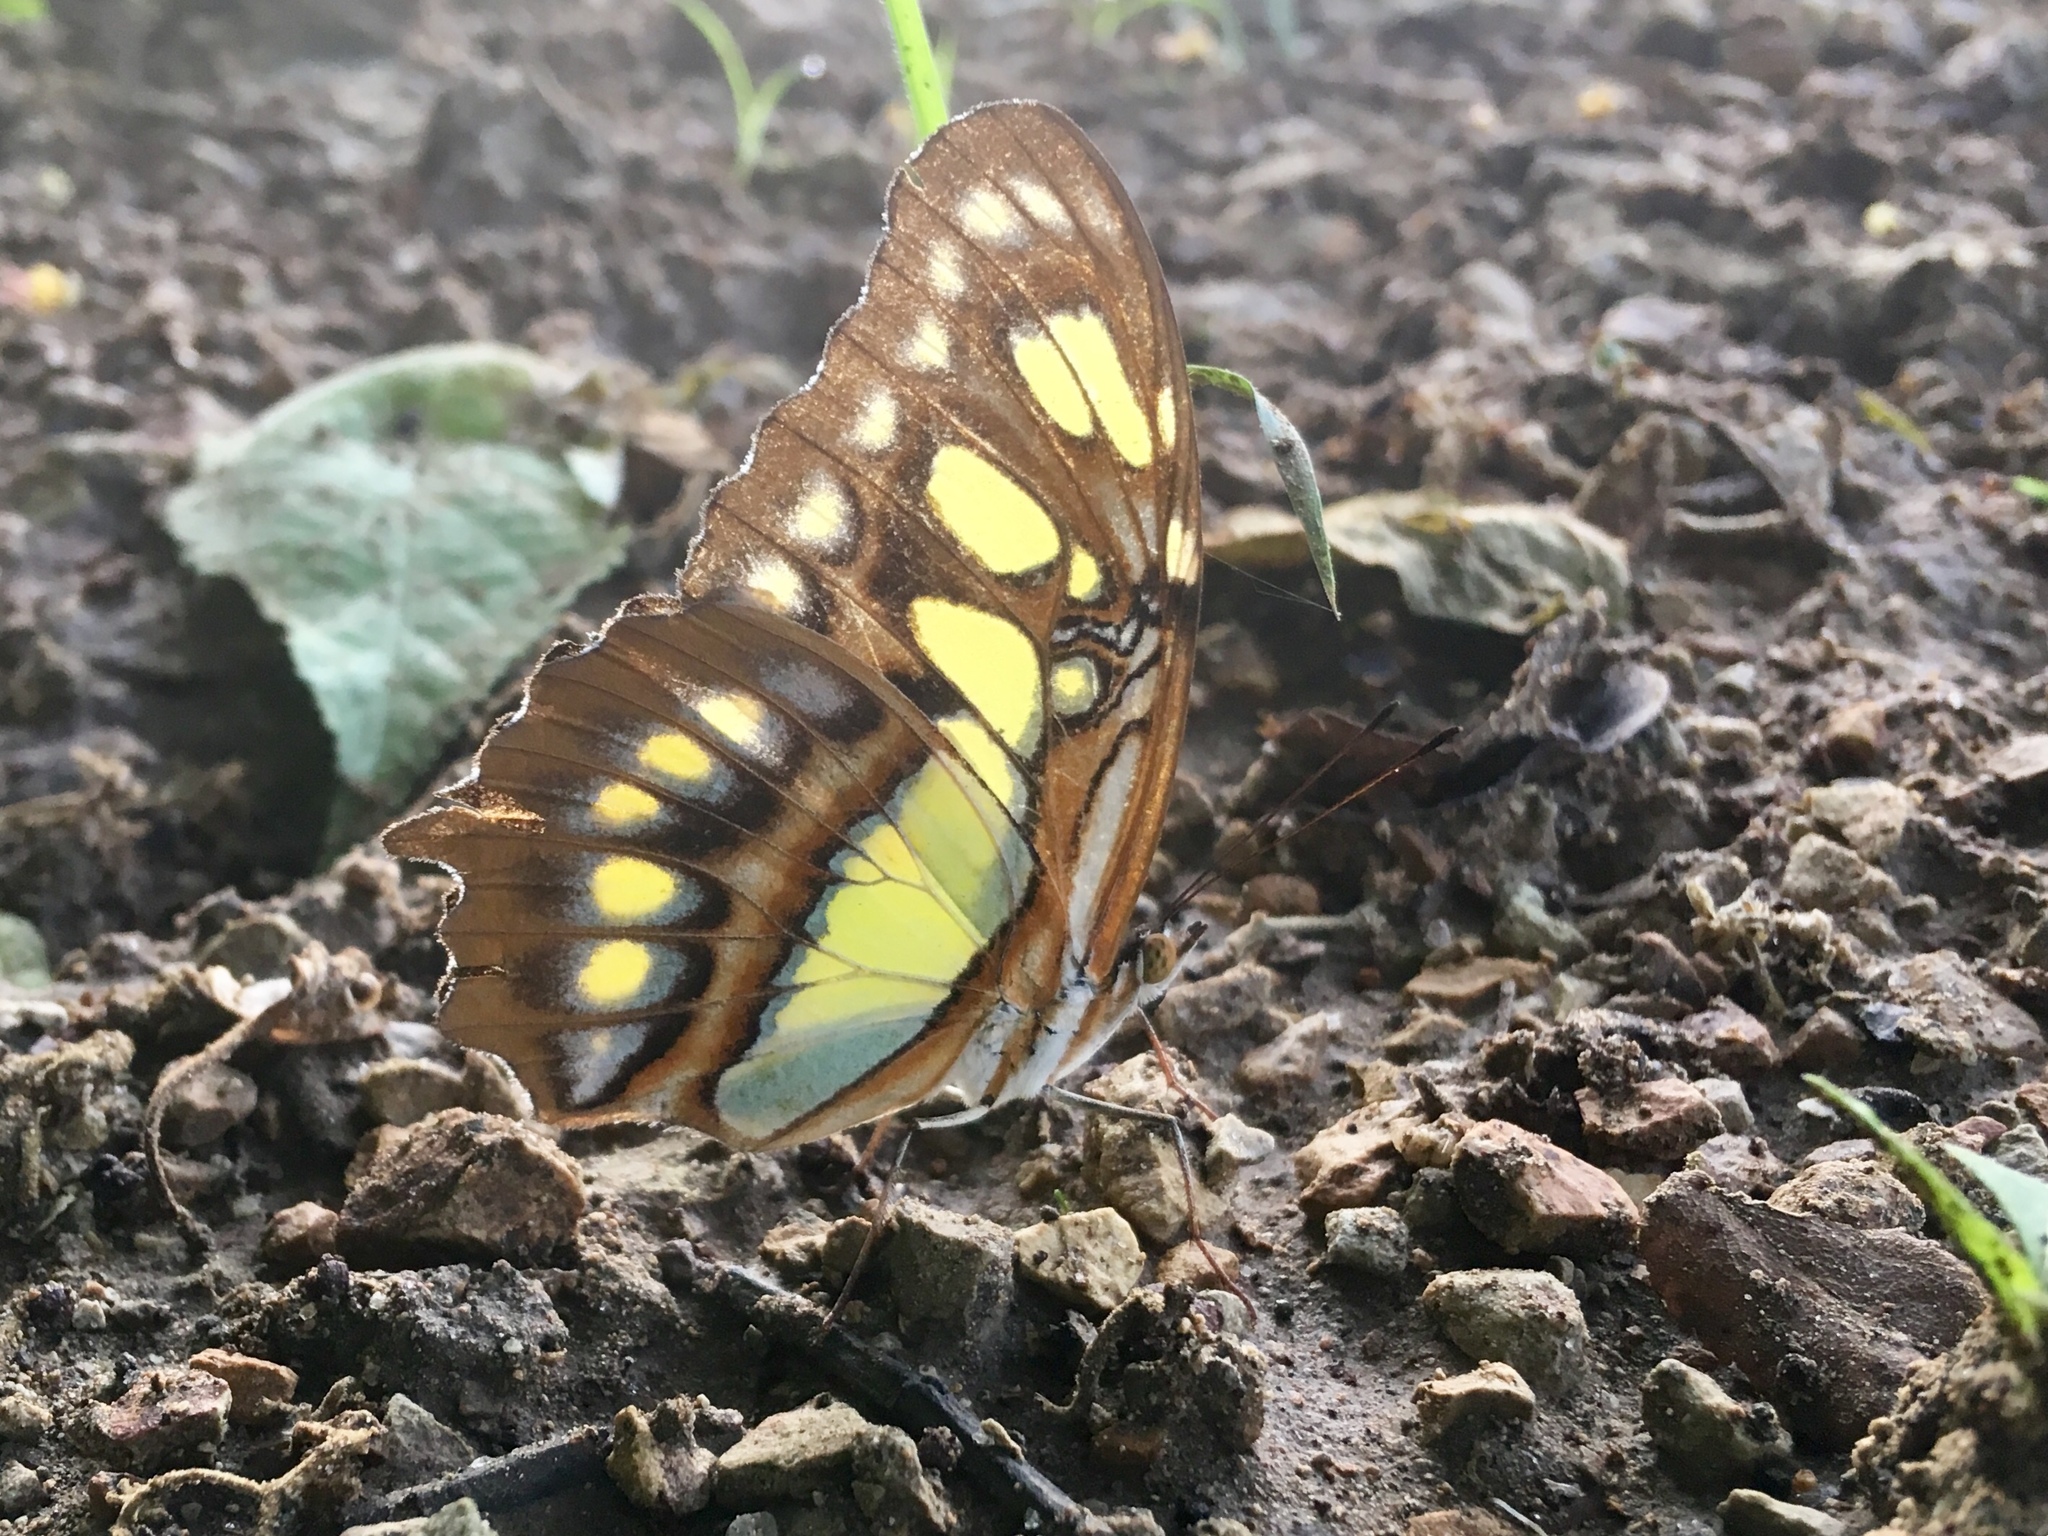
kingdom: Animalia
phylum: Arthropoda
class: Insecta
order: Lepidoptera
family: Nymphalidae
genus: Siproeta
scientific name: Siproeta stelenes
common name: Malachite
